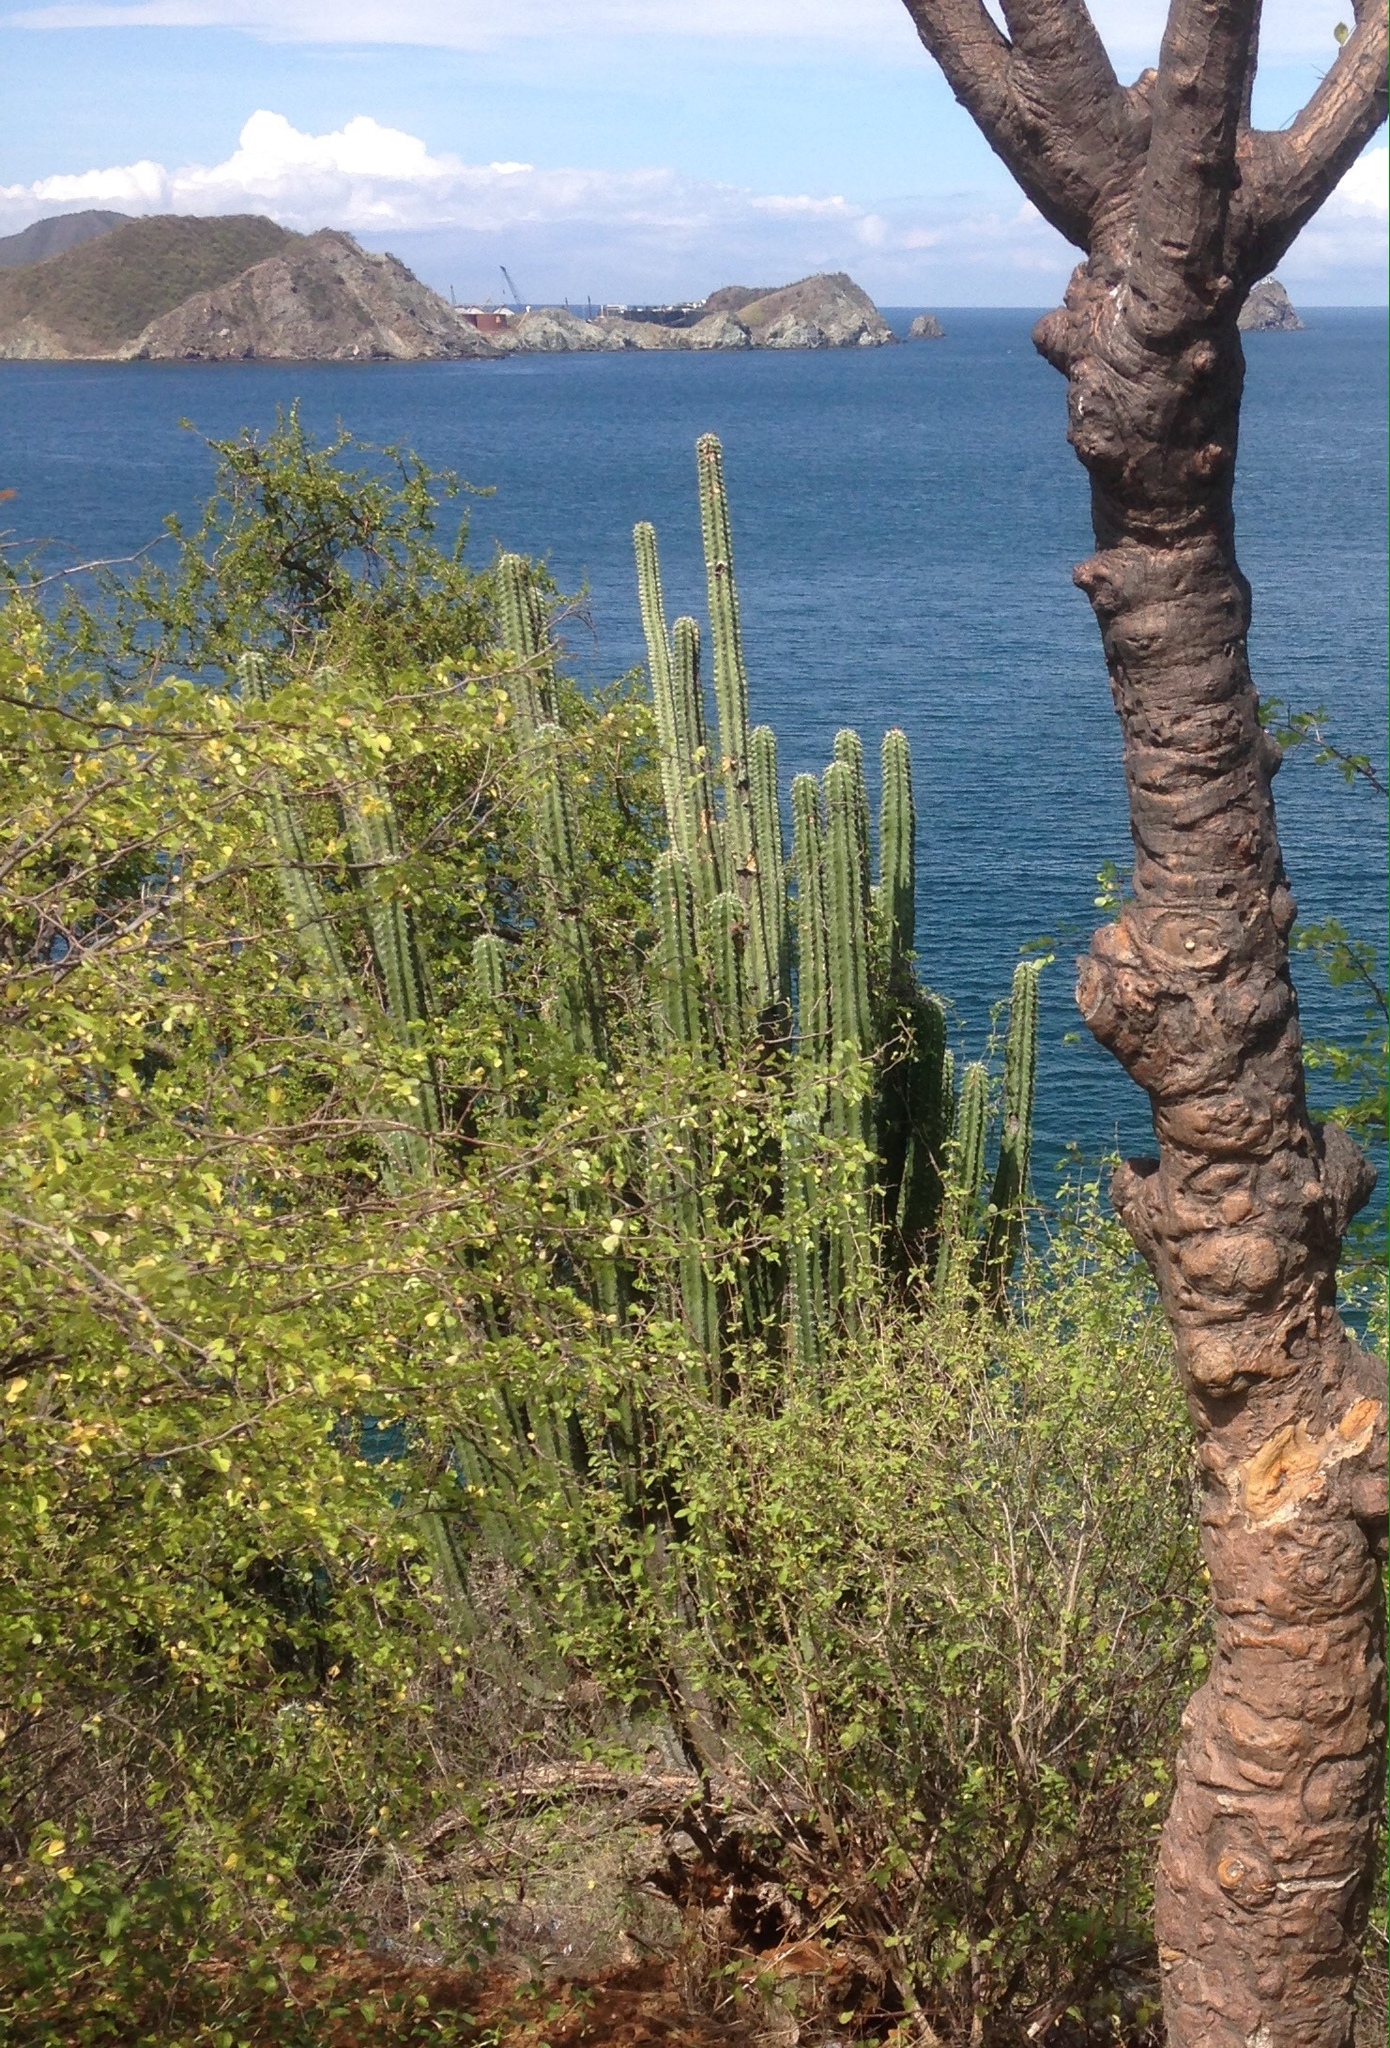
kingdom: Plantae
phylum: Tracheophyta
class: Magnoliopsida
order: Caryophyllales
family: Cactaceae
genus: Stenocereus
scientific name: Stenocereus griseus
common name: Tall candelabra cactus
